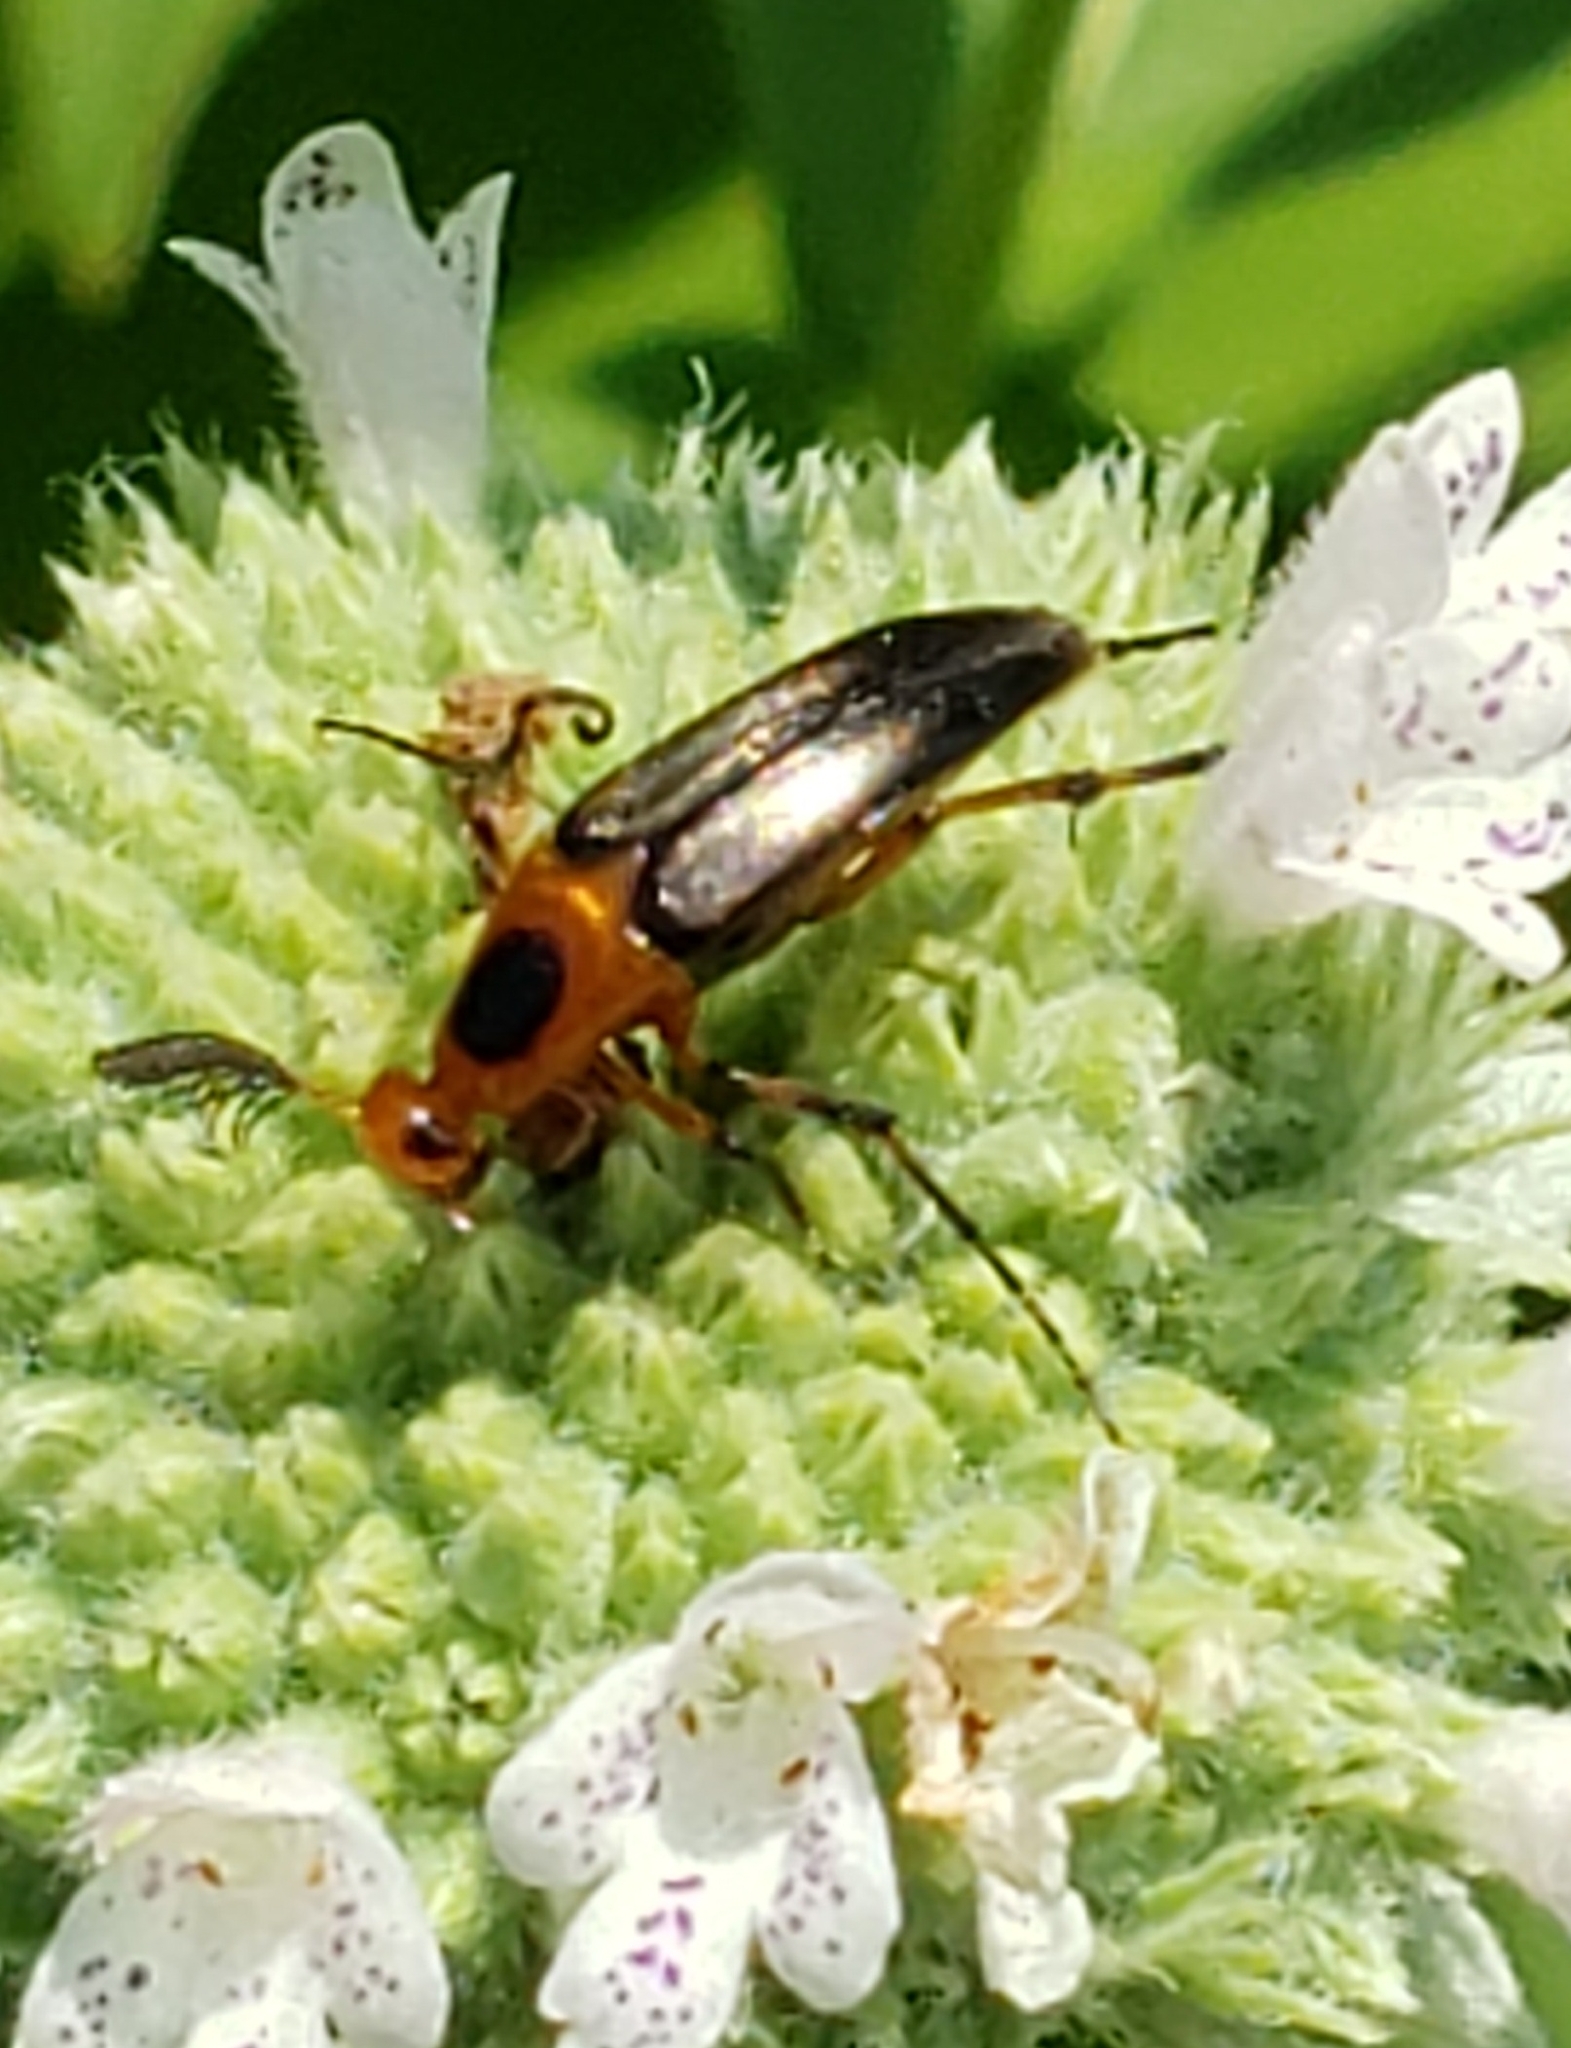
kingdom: Animalia
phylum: Arthropoda
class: Insecta
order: Coleoptera
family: Ripiphoridae
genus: Macrosiagon
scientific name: Macrosiagon limbatum
